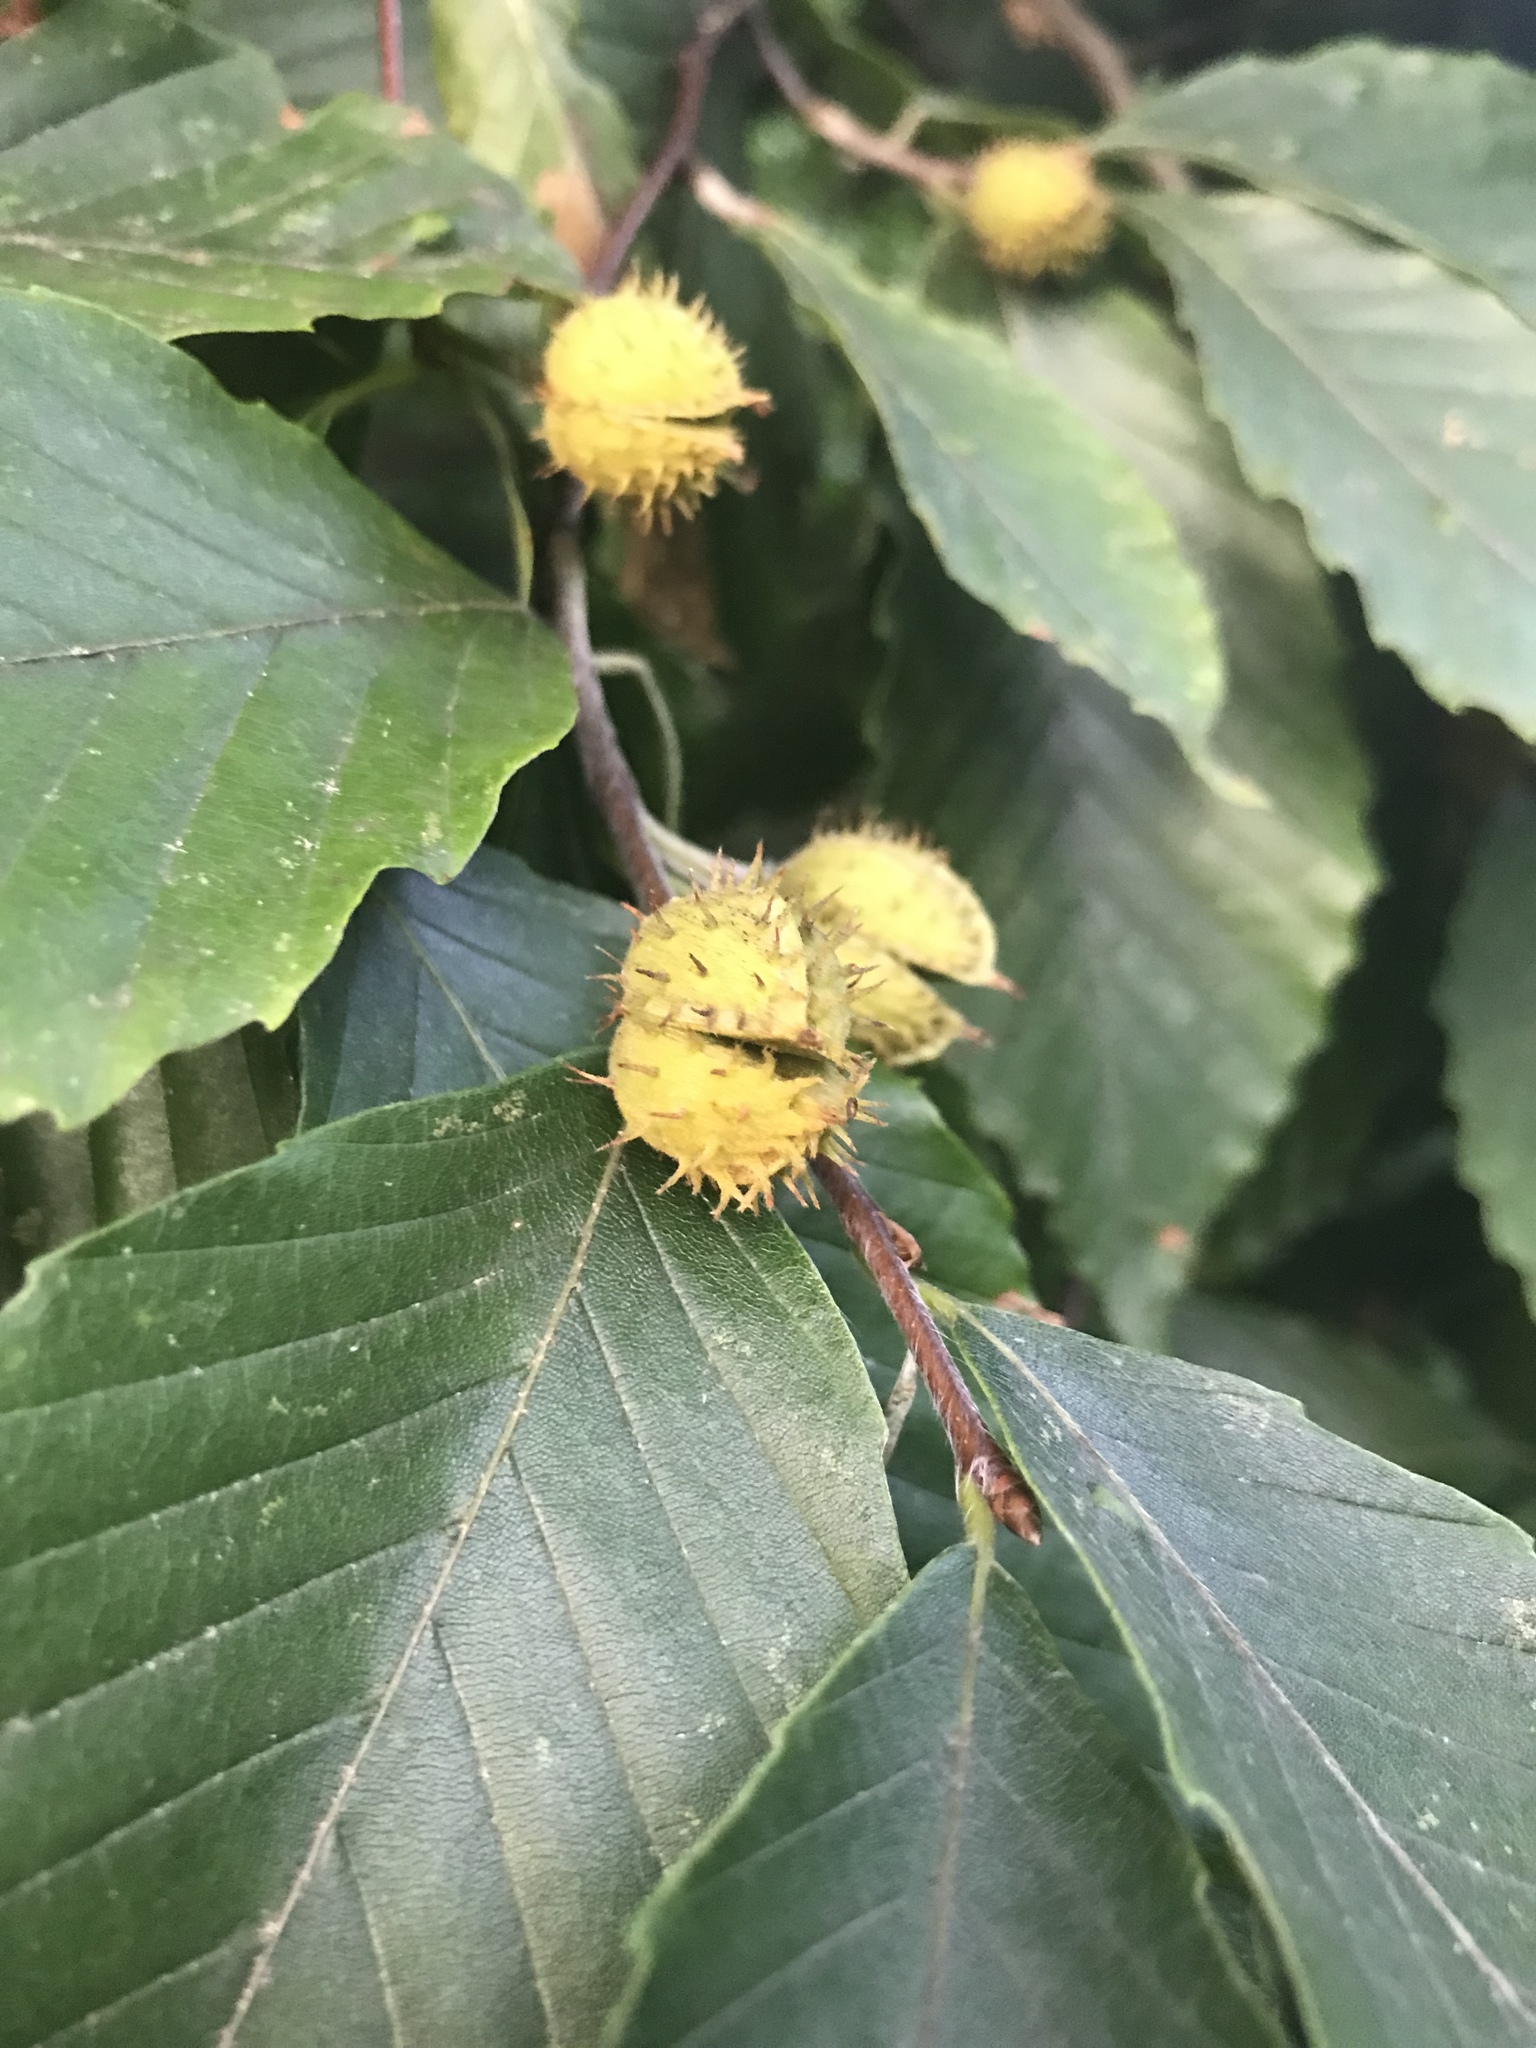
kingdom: Plantae
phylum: Tracheophyta
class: Magnoliopsida
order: Fagales
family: Fagaceae
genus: Fagus
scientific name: Fagus grandifolia
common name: American beech
